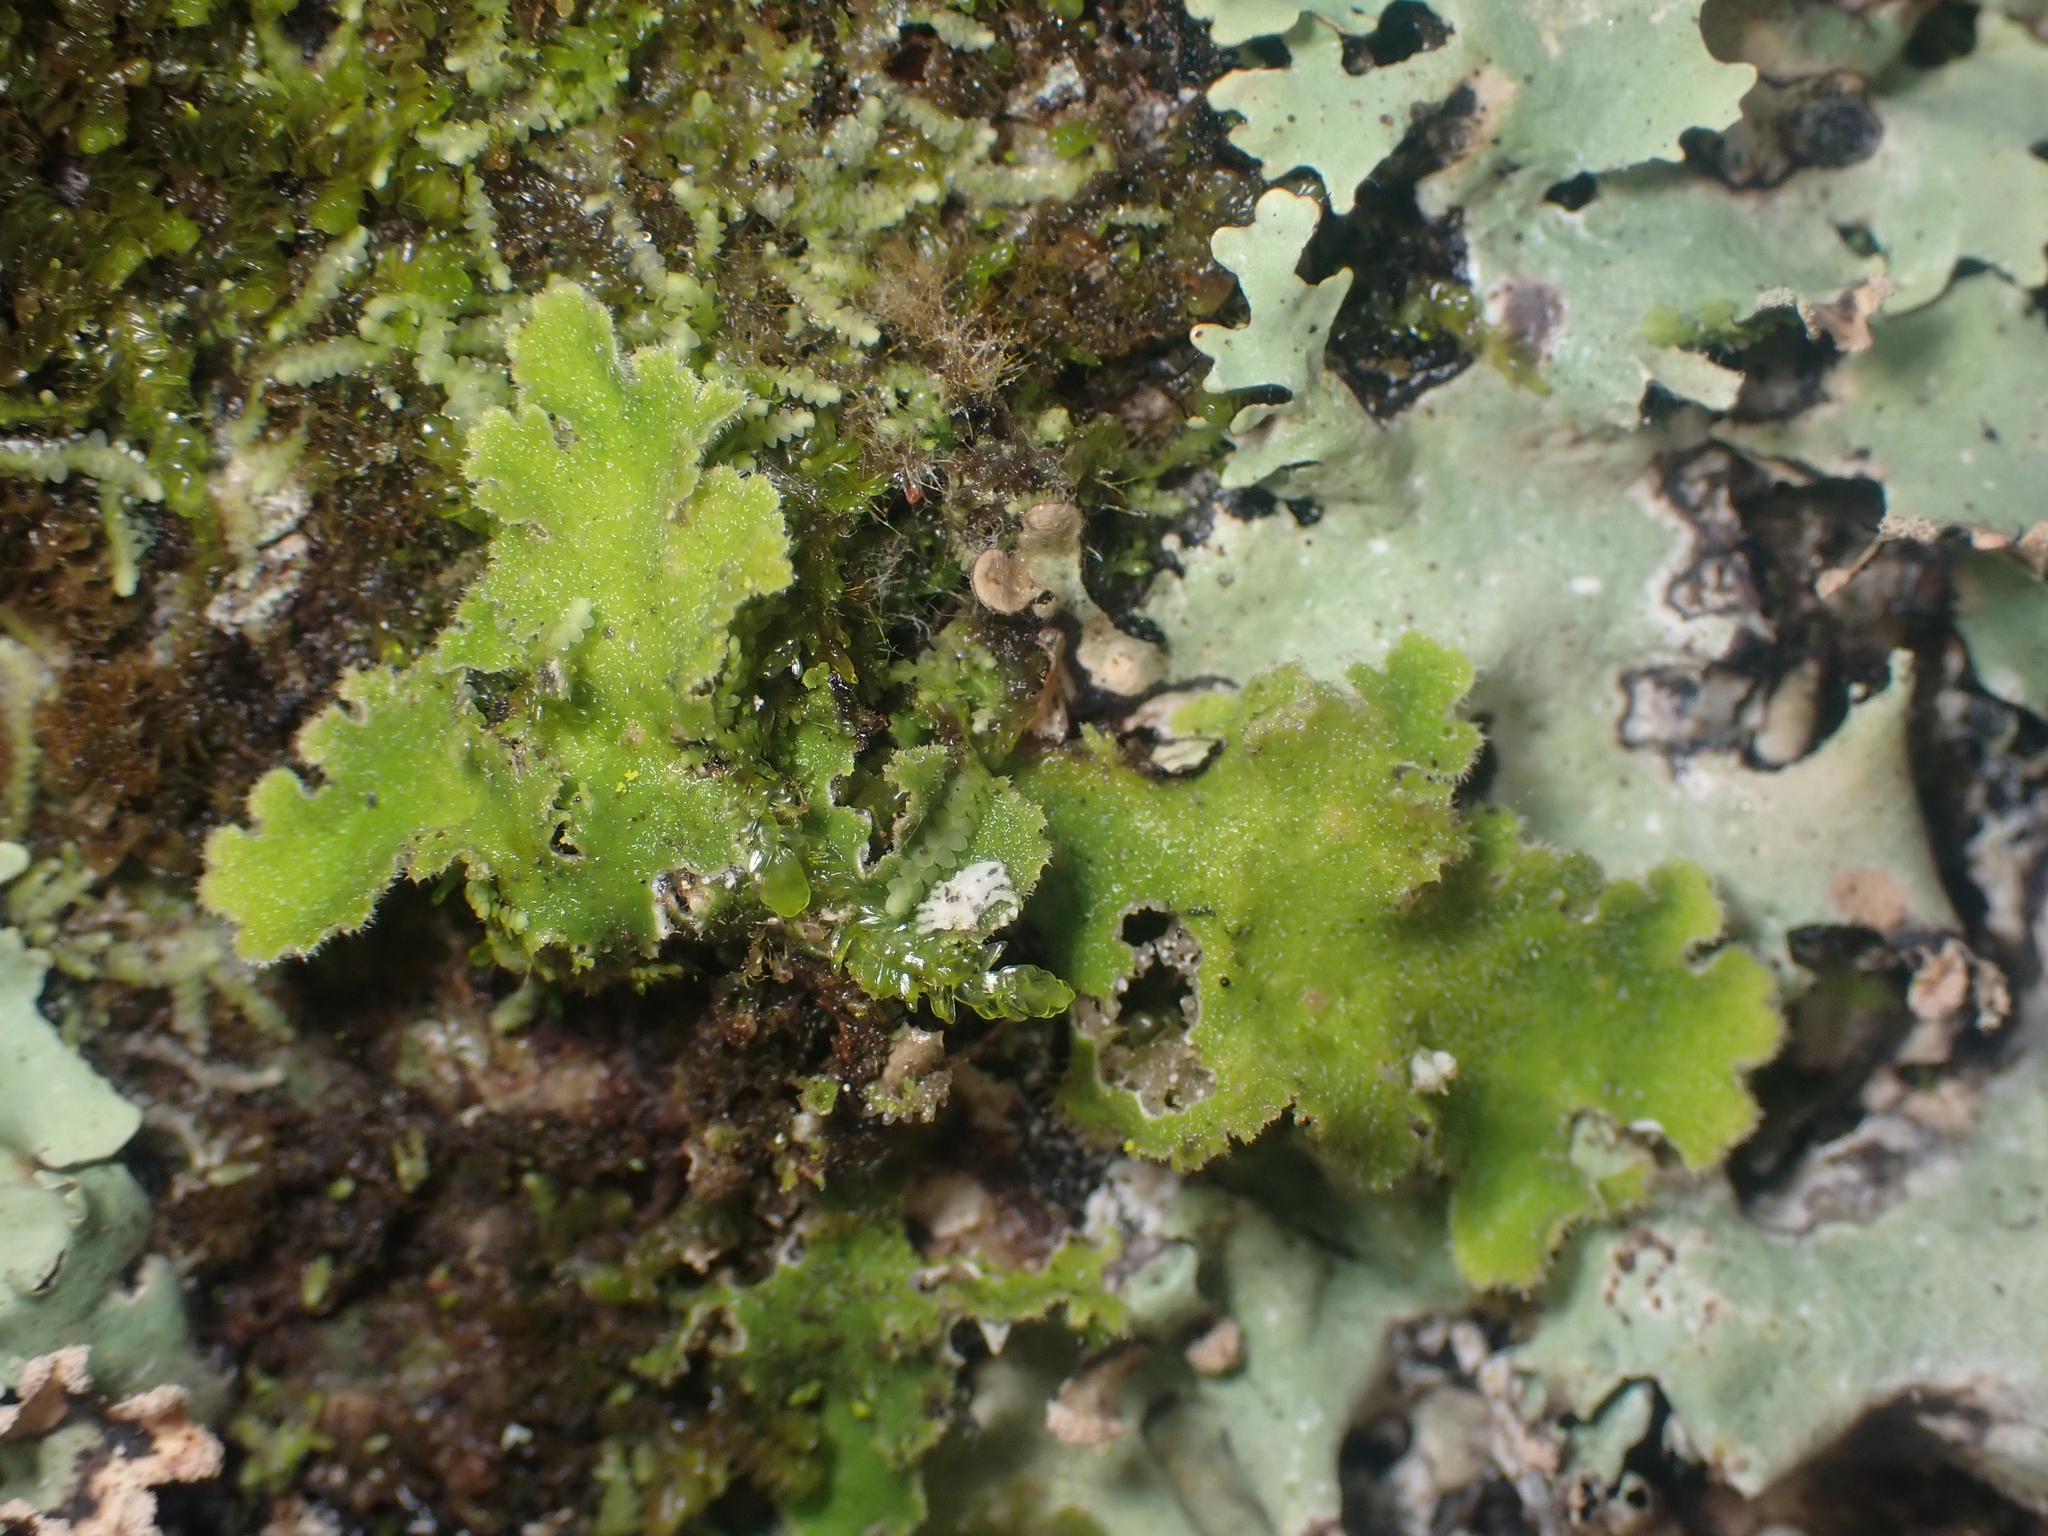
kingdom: Fungi
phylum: Ascomycota
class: Lecanoromycetes
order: Peltigerales
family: Lobariaceae
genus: Pseudocyphellaria
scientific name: Pseudocyphellaria gretae
